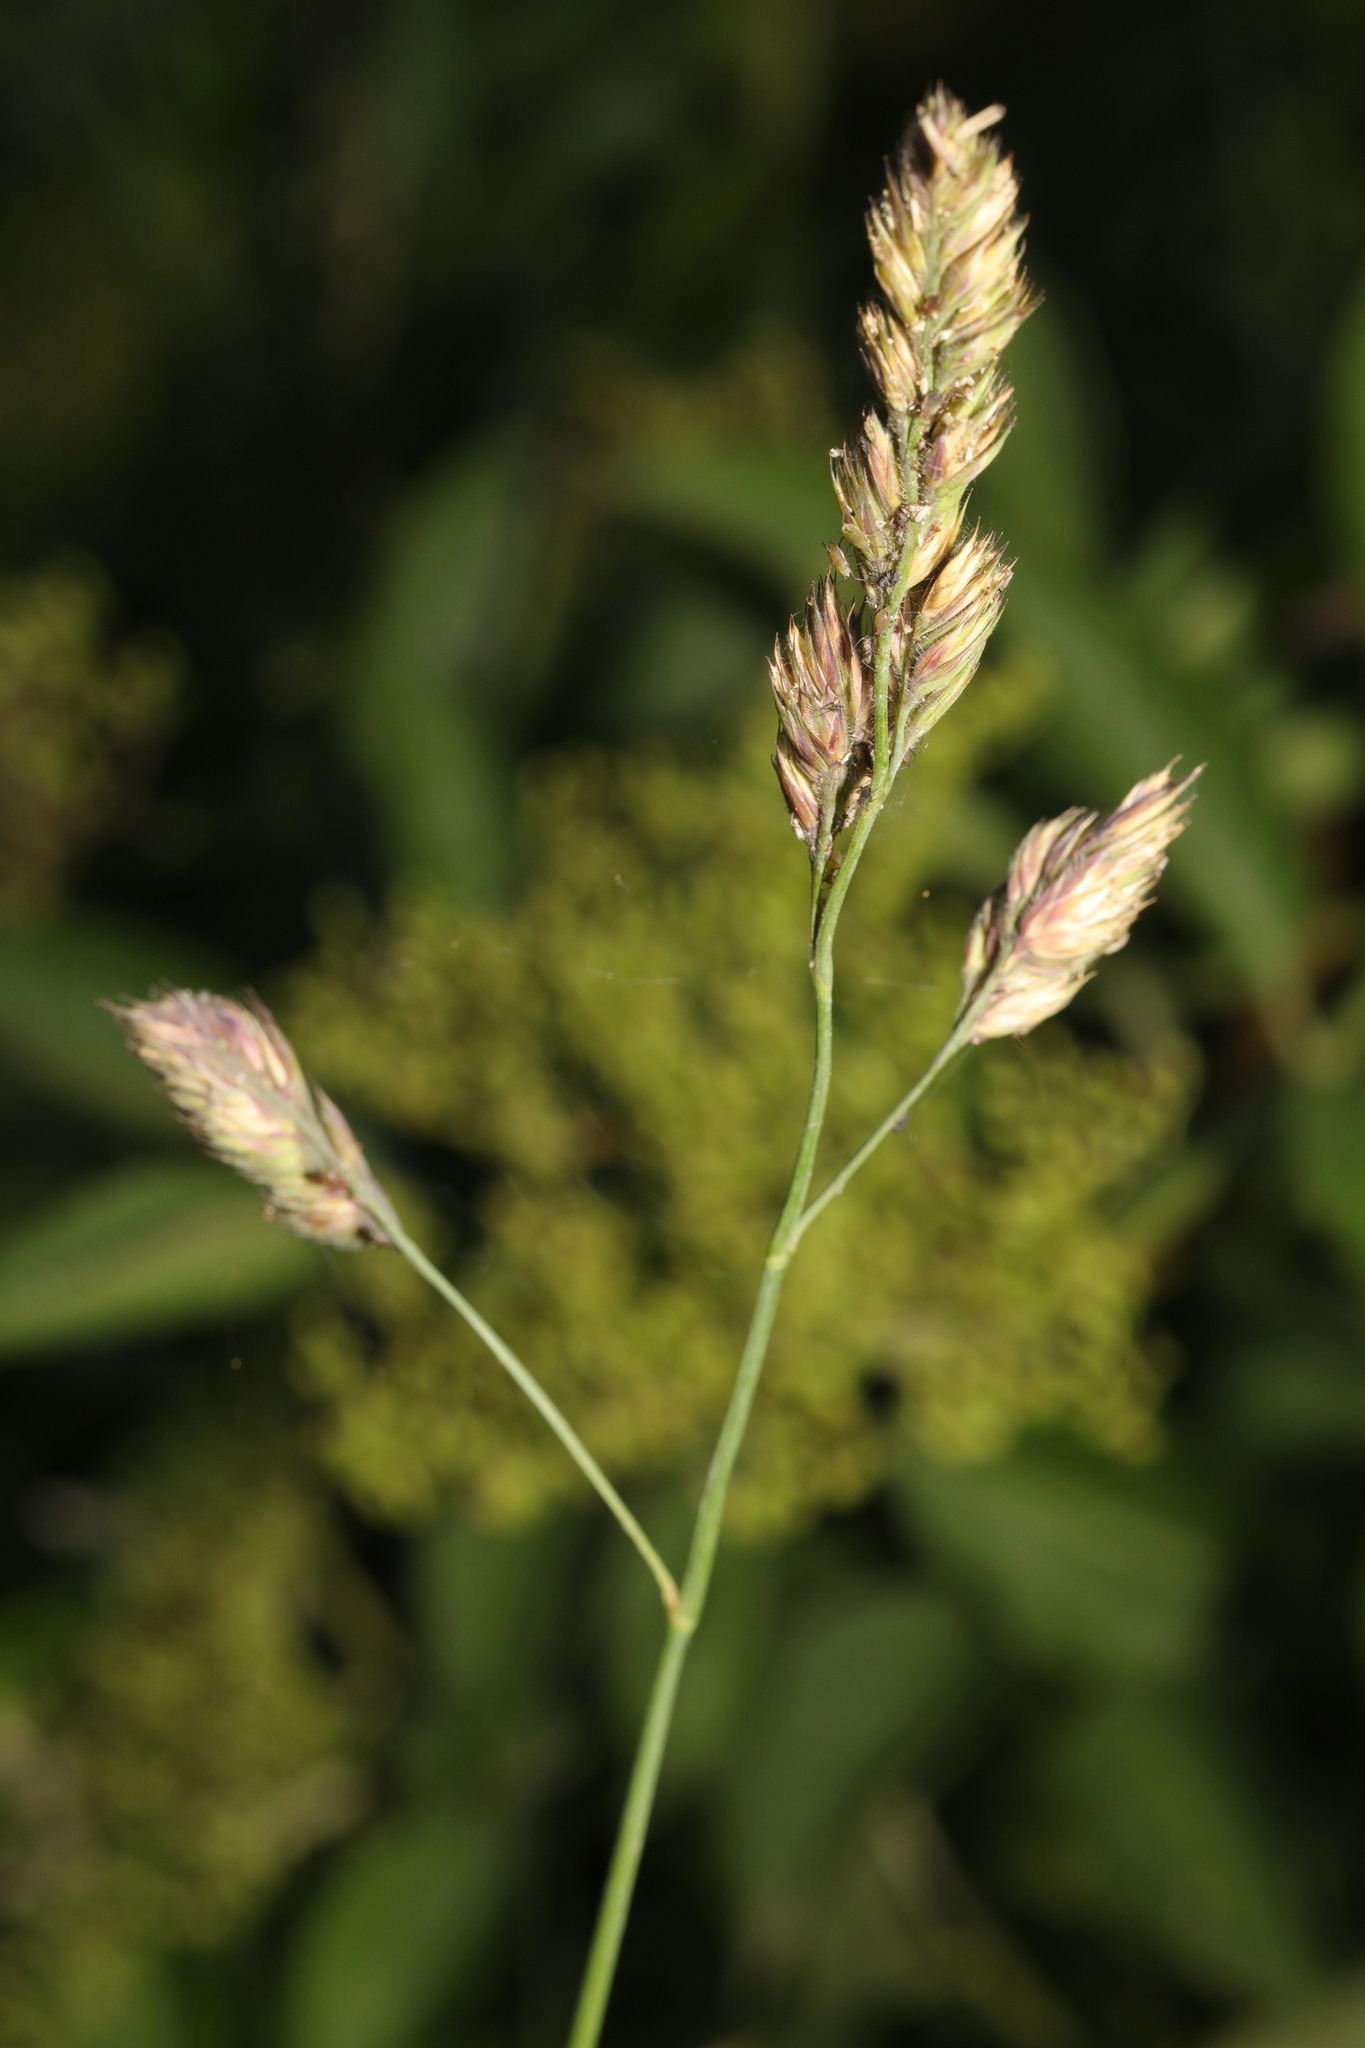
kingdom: Plantae
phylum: Tracheophyta
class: Liliopsida
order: Poales
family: Poaceae
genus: Dactylis
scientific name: Dactylis glomerata
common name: Orchardgrass
